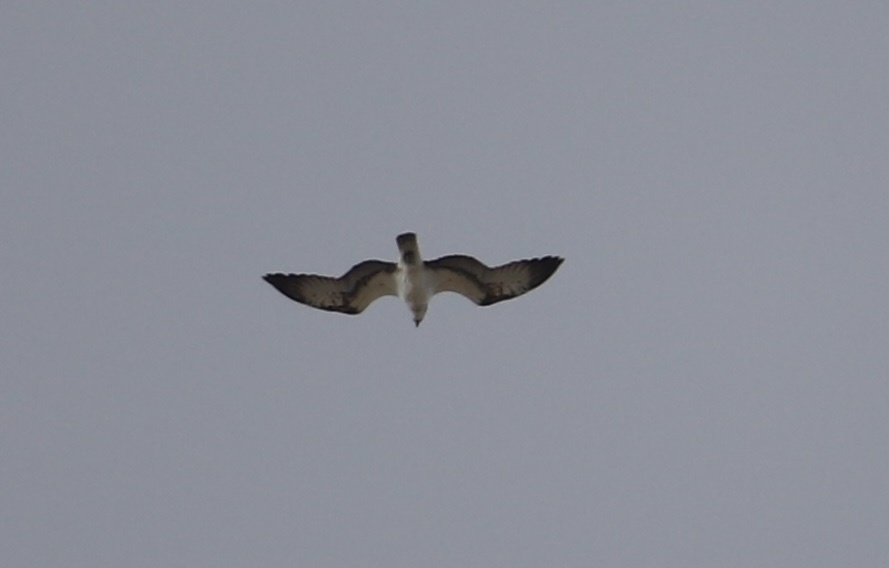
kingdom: Animalia
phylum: Chordata
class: Aves
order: Accipitriformes
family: Pandionidae
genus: Pandion
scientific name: Pandion haliaetus
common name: Osprey
